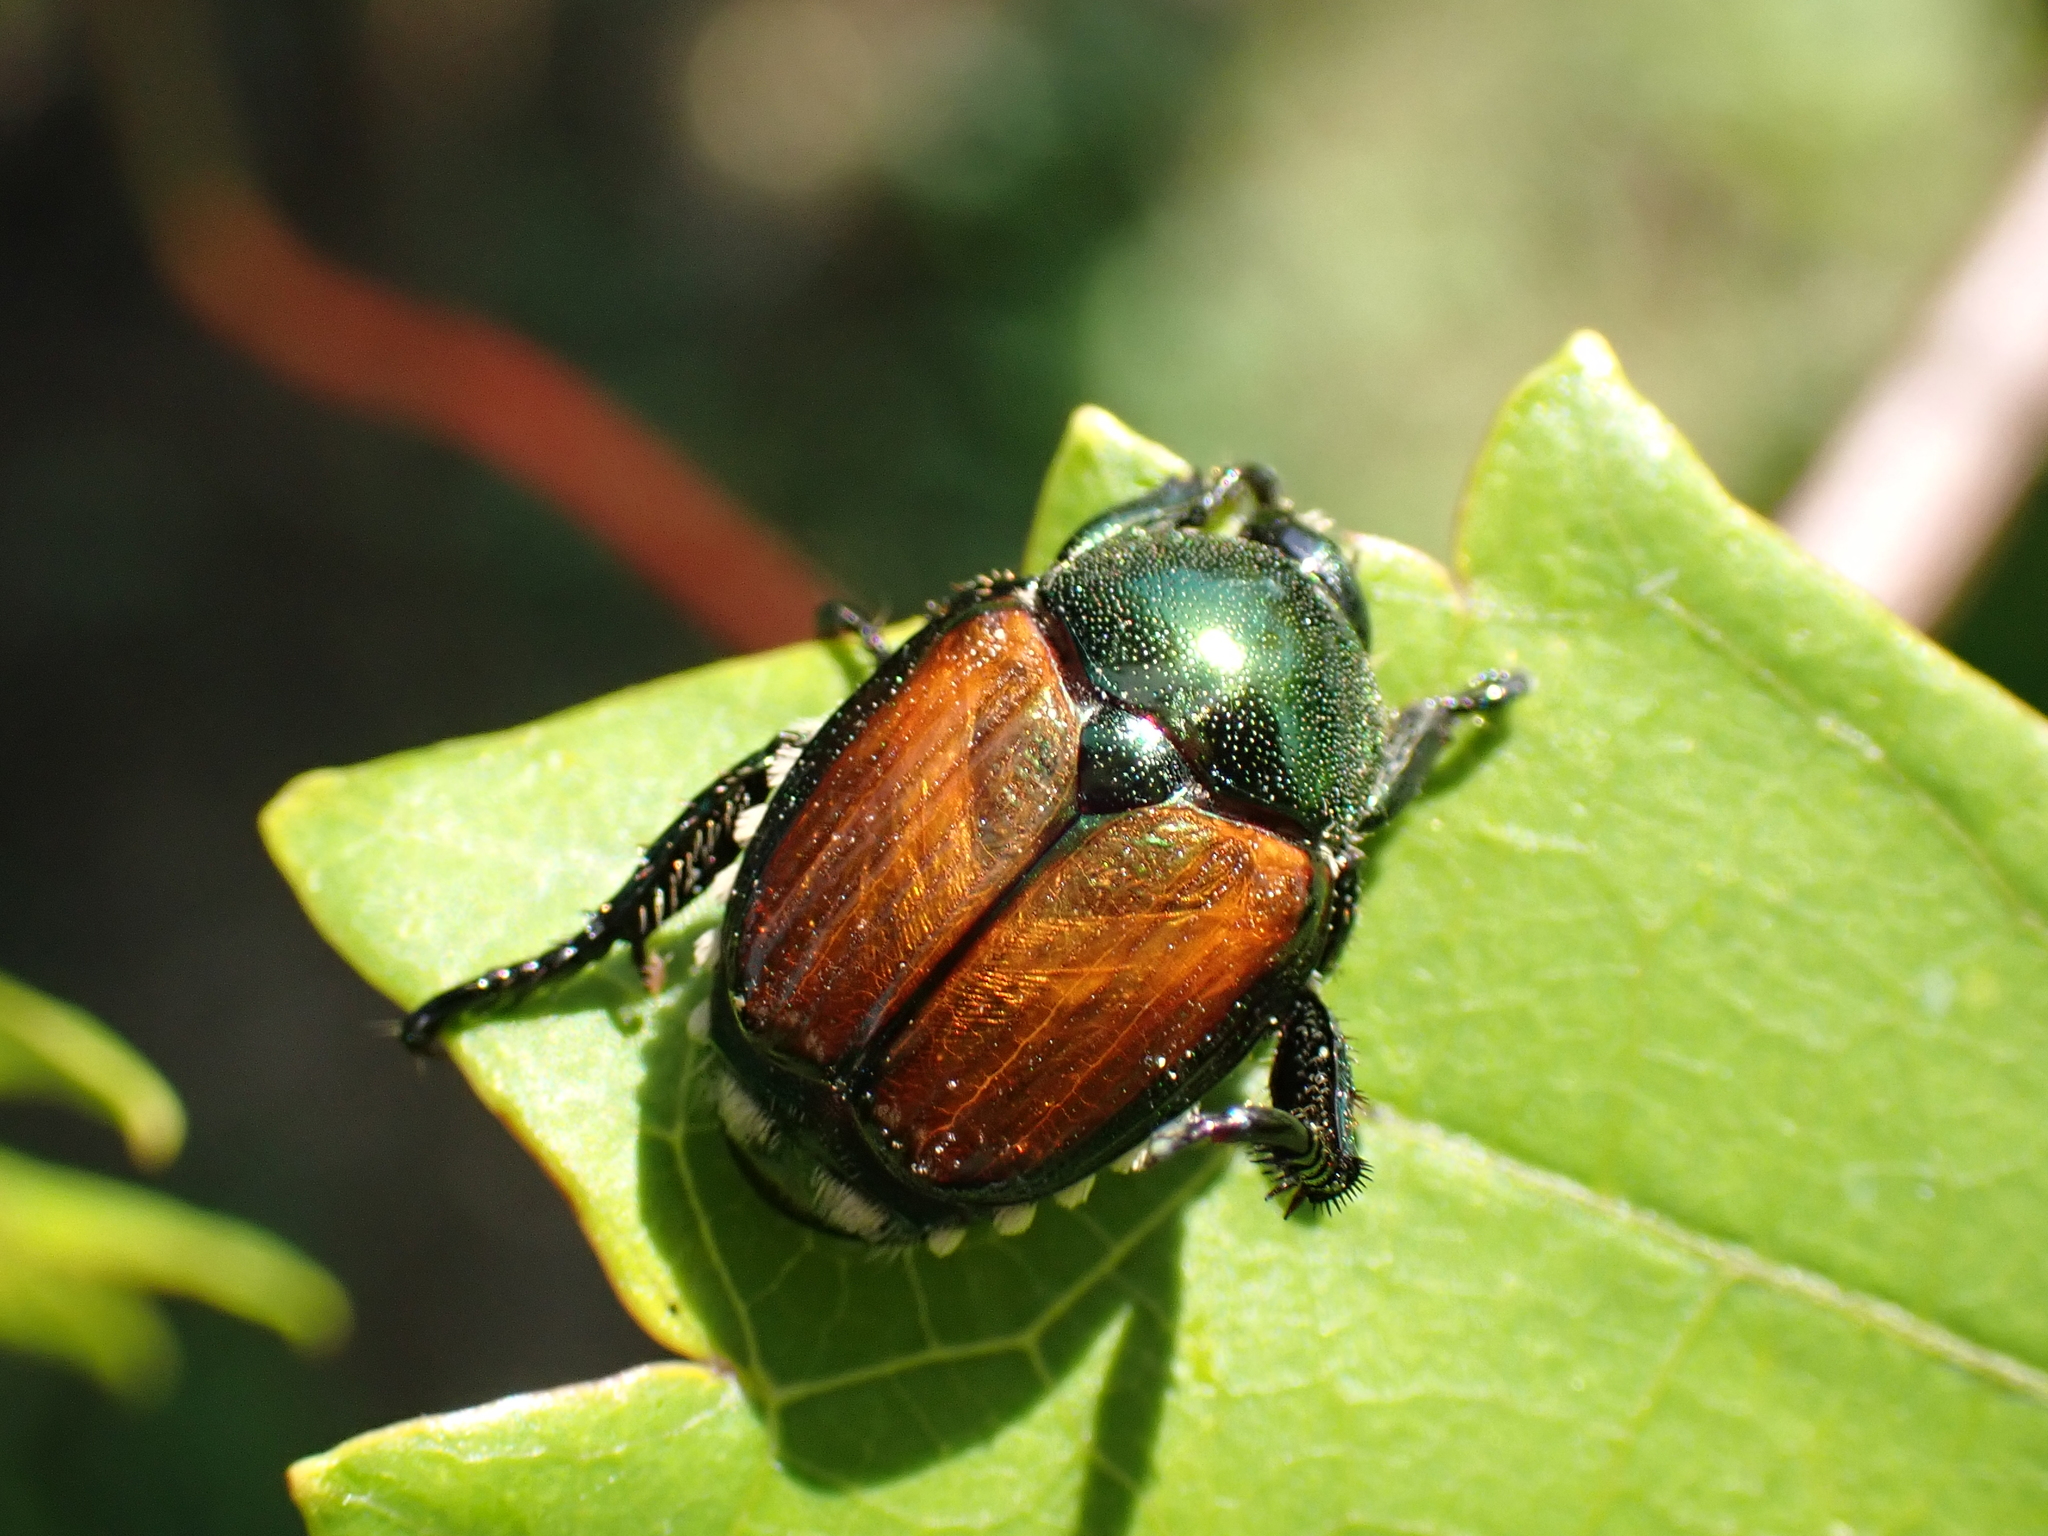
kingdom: Animalia
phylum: Arthropoda
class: Insecta
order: Coleoptera
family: Scarabaeidae
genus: Popillia
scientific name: Popillia japonica
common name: Japanese beetle
